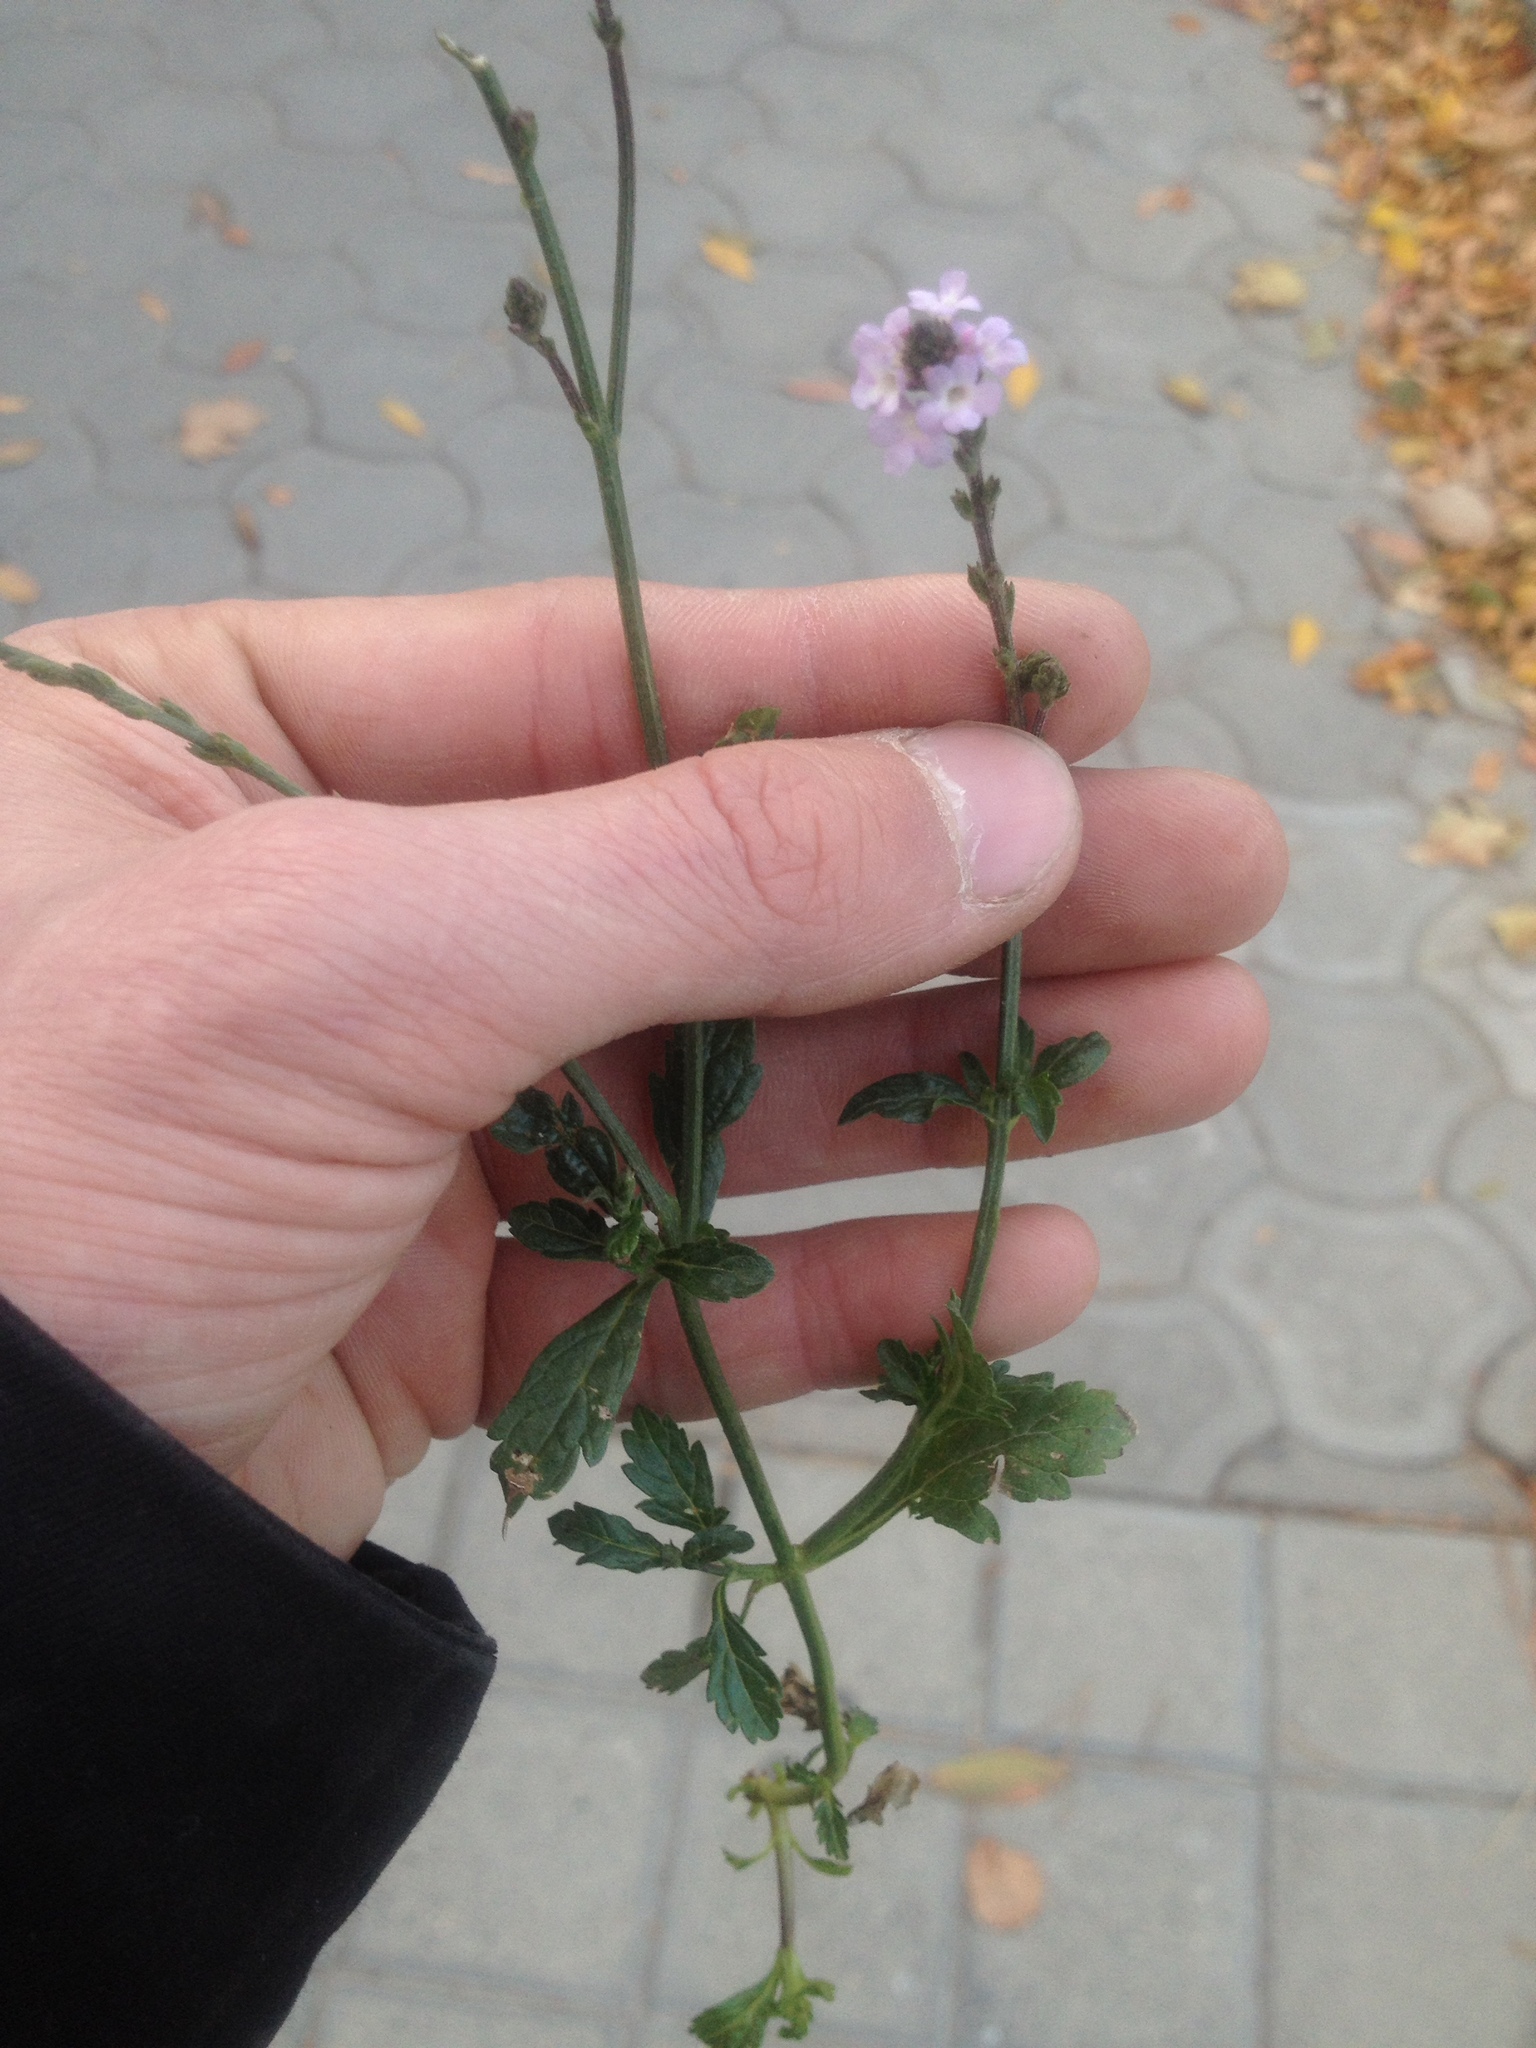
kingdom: Plantae
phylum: Tracheophyta
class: Magnoliopsida
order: Lamiales
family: Verbenaceae
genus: Verbena
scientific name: Verbena officinalis
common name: Vervain
